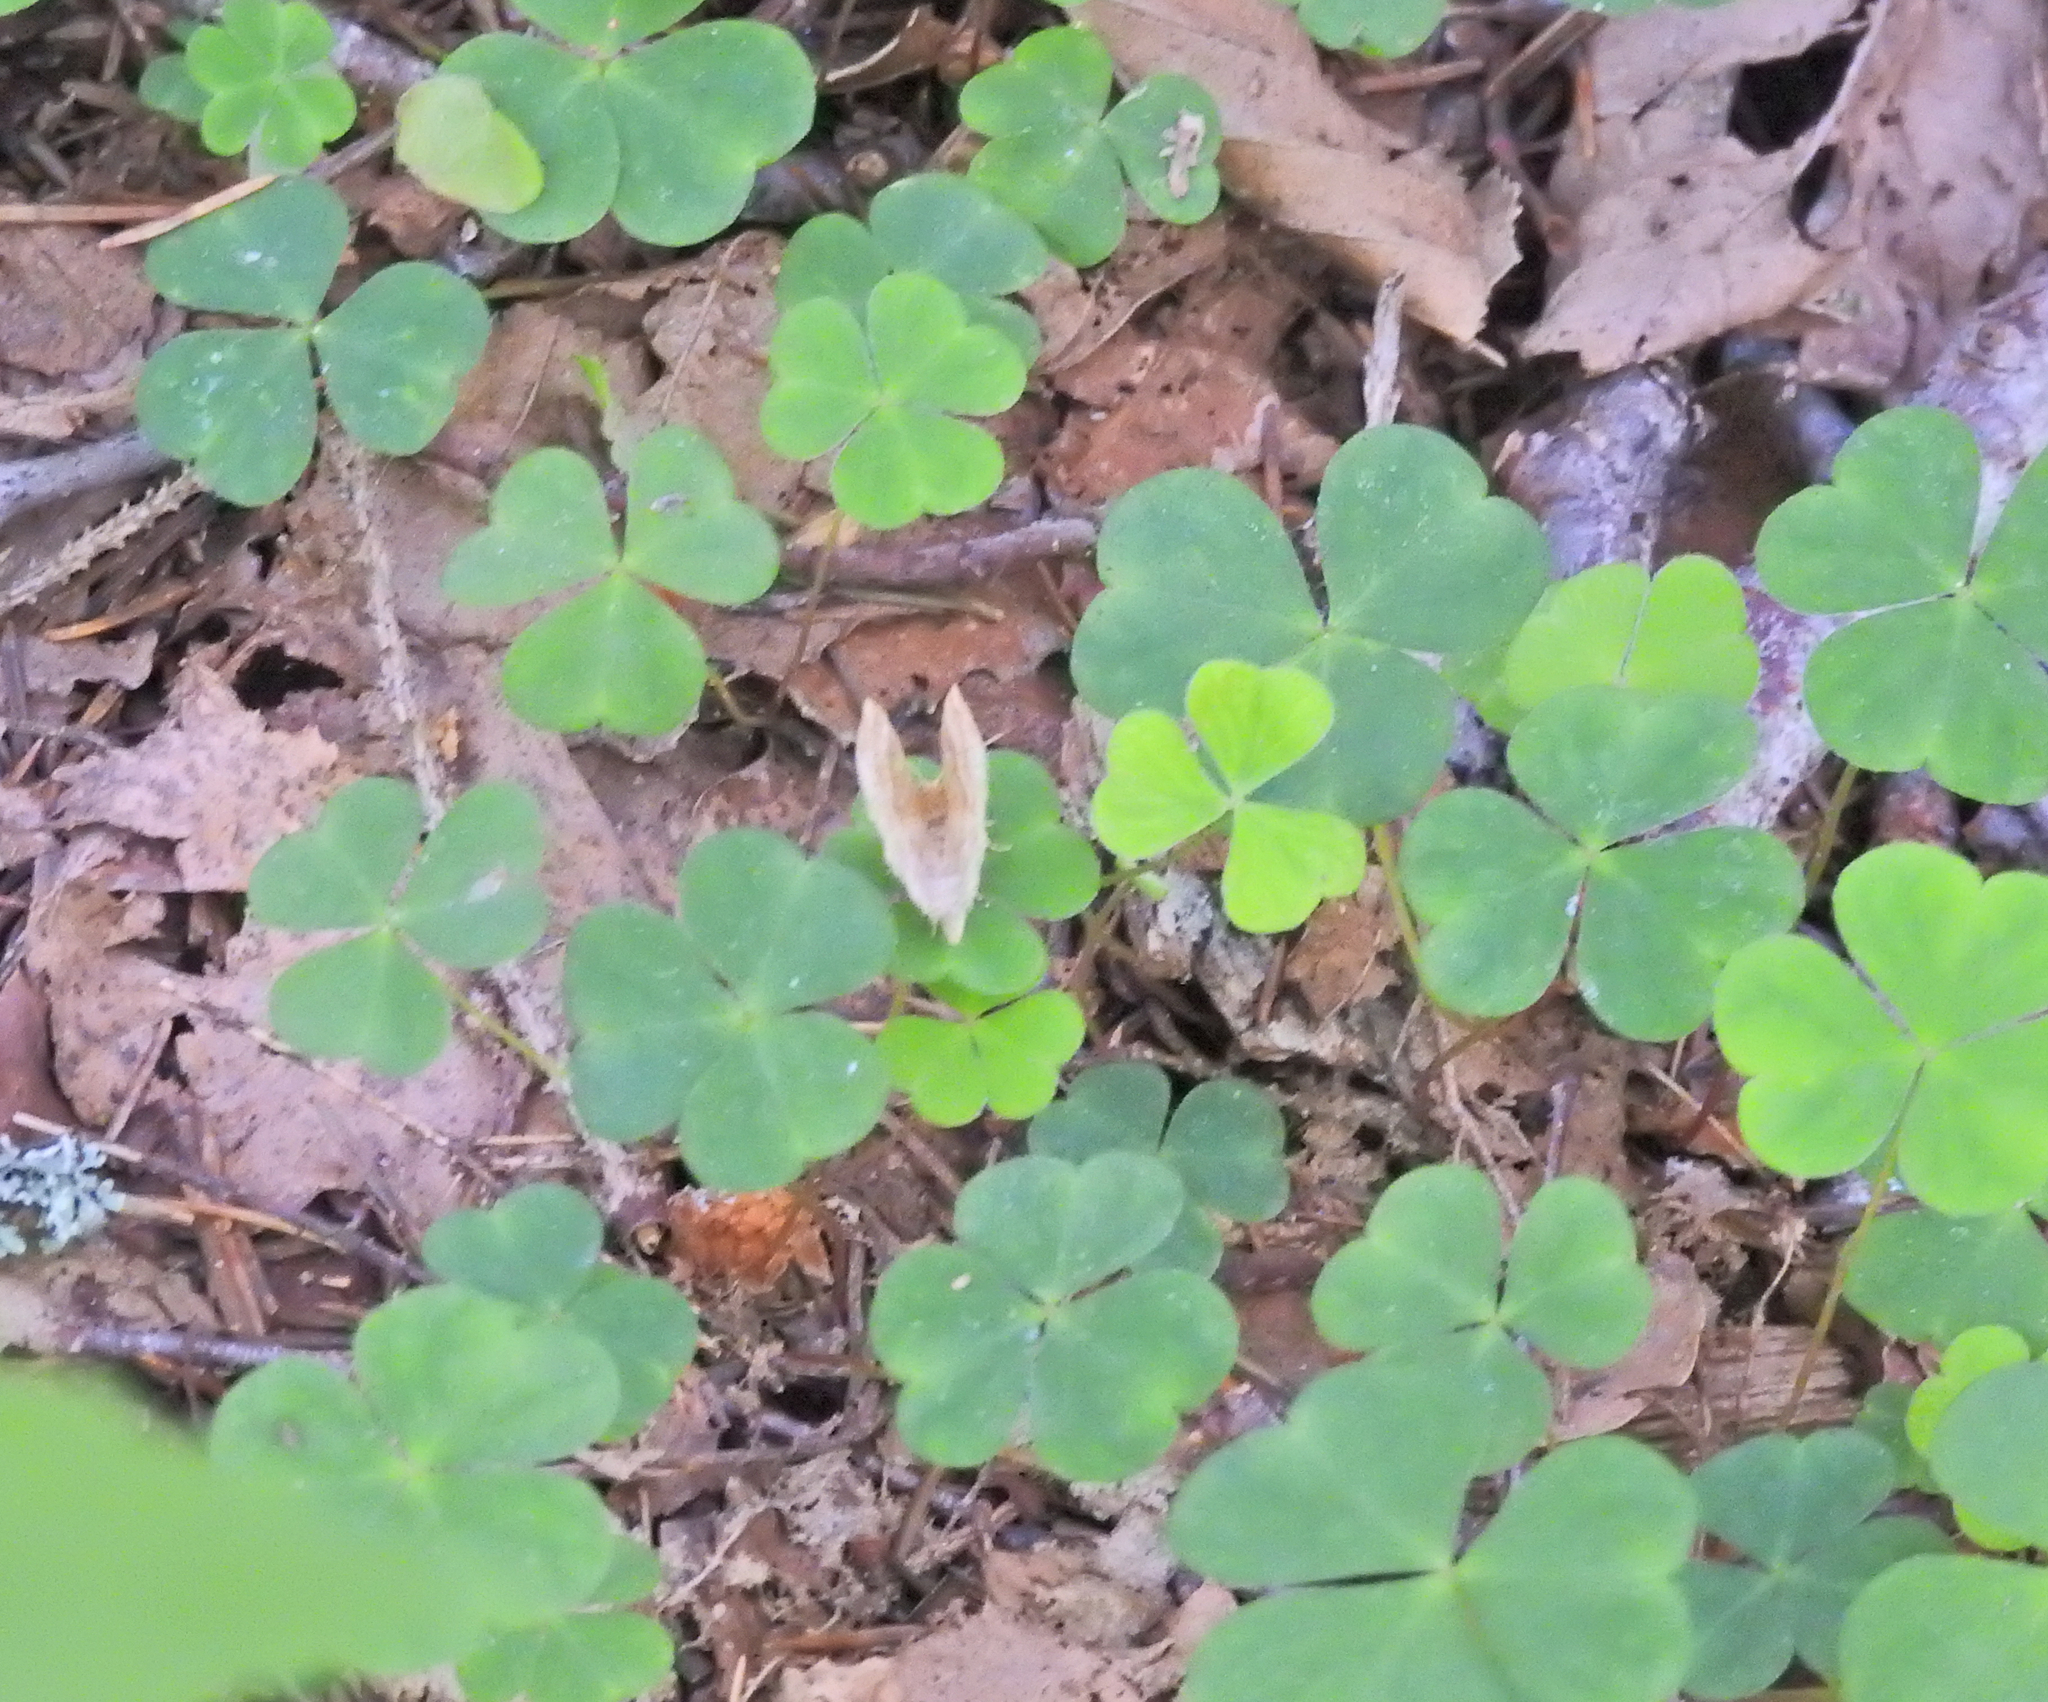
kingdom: Animalia
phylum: Arthropoda
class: Insecta
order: Lepidoptera
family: Geometridae
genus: Cepphis
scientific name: Cepphis advenaria
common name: Little thorn
